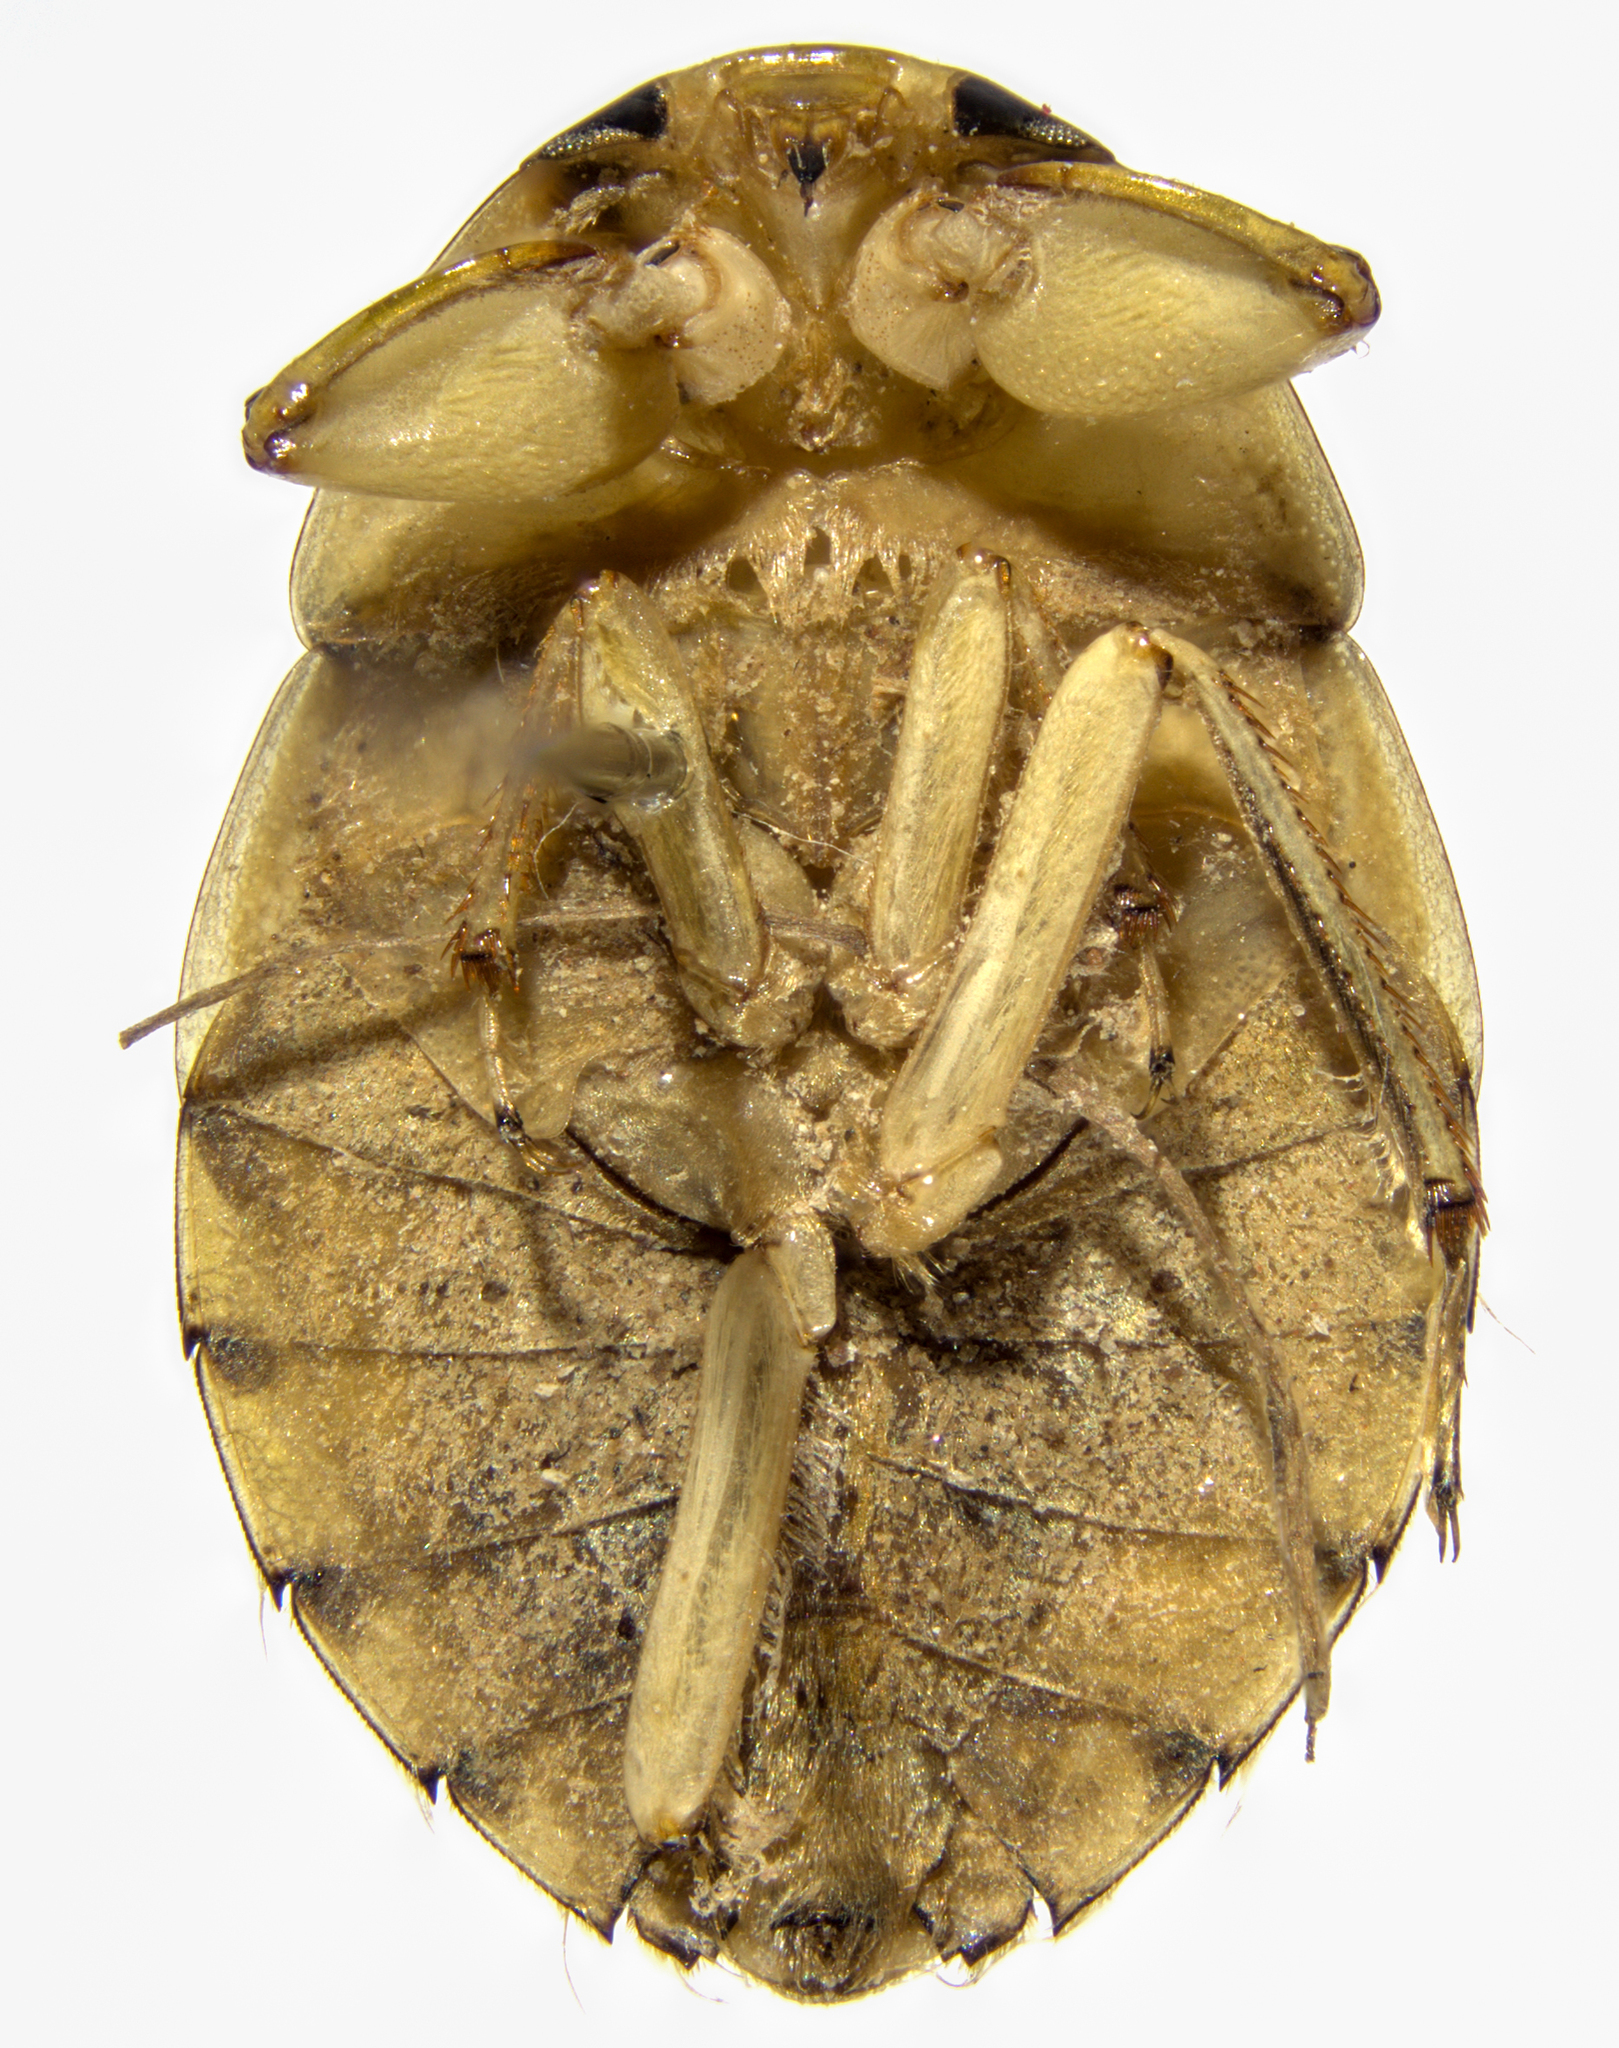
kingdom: Animalia
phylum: Arthropoda
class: Insecta
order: Hemiptera
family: Naucoridae
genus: Ambrysus
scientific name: Ambrysus occidentalis
